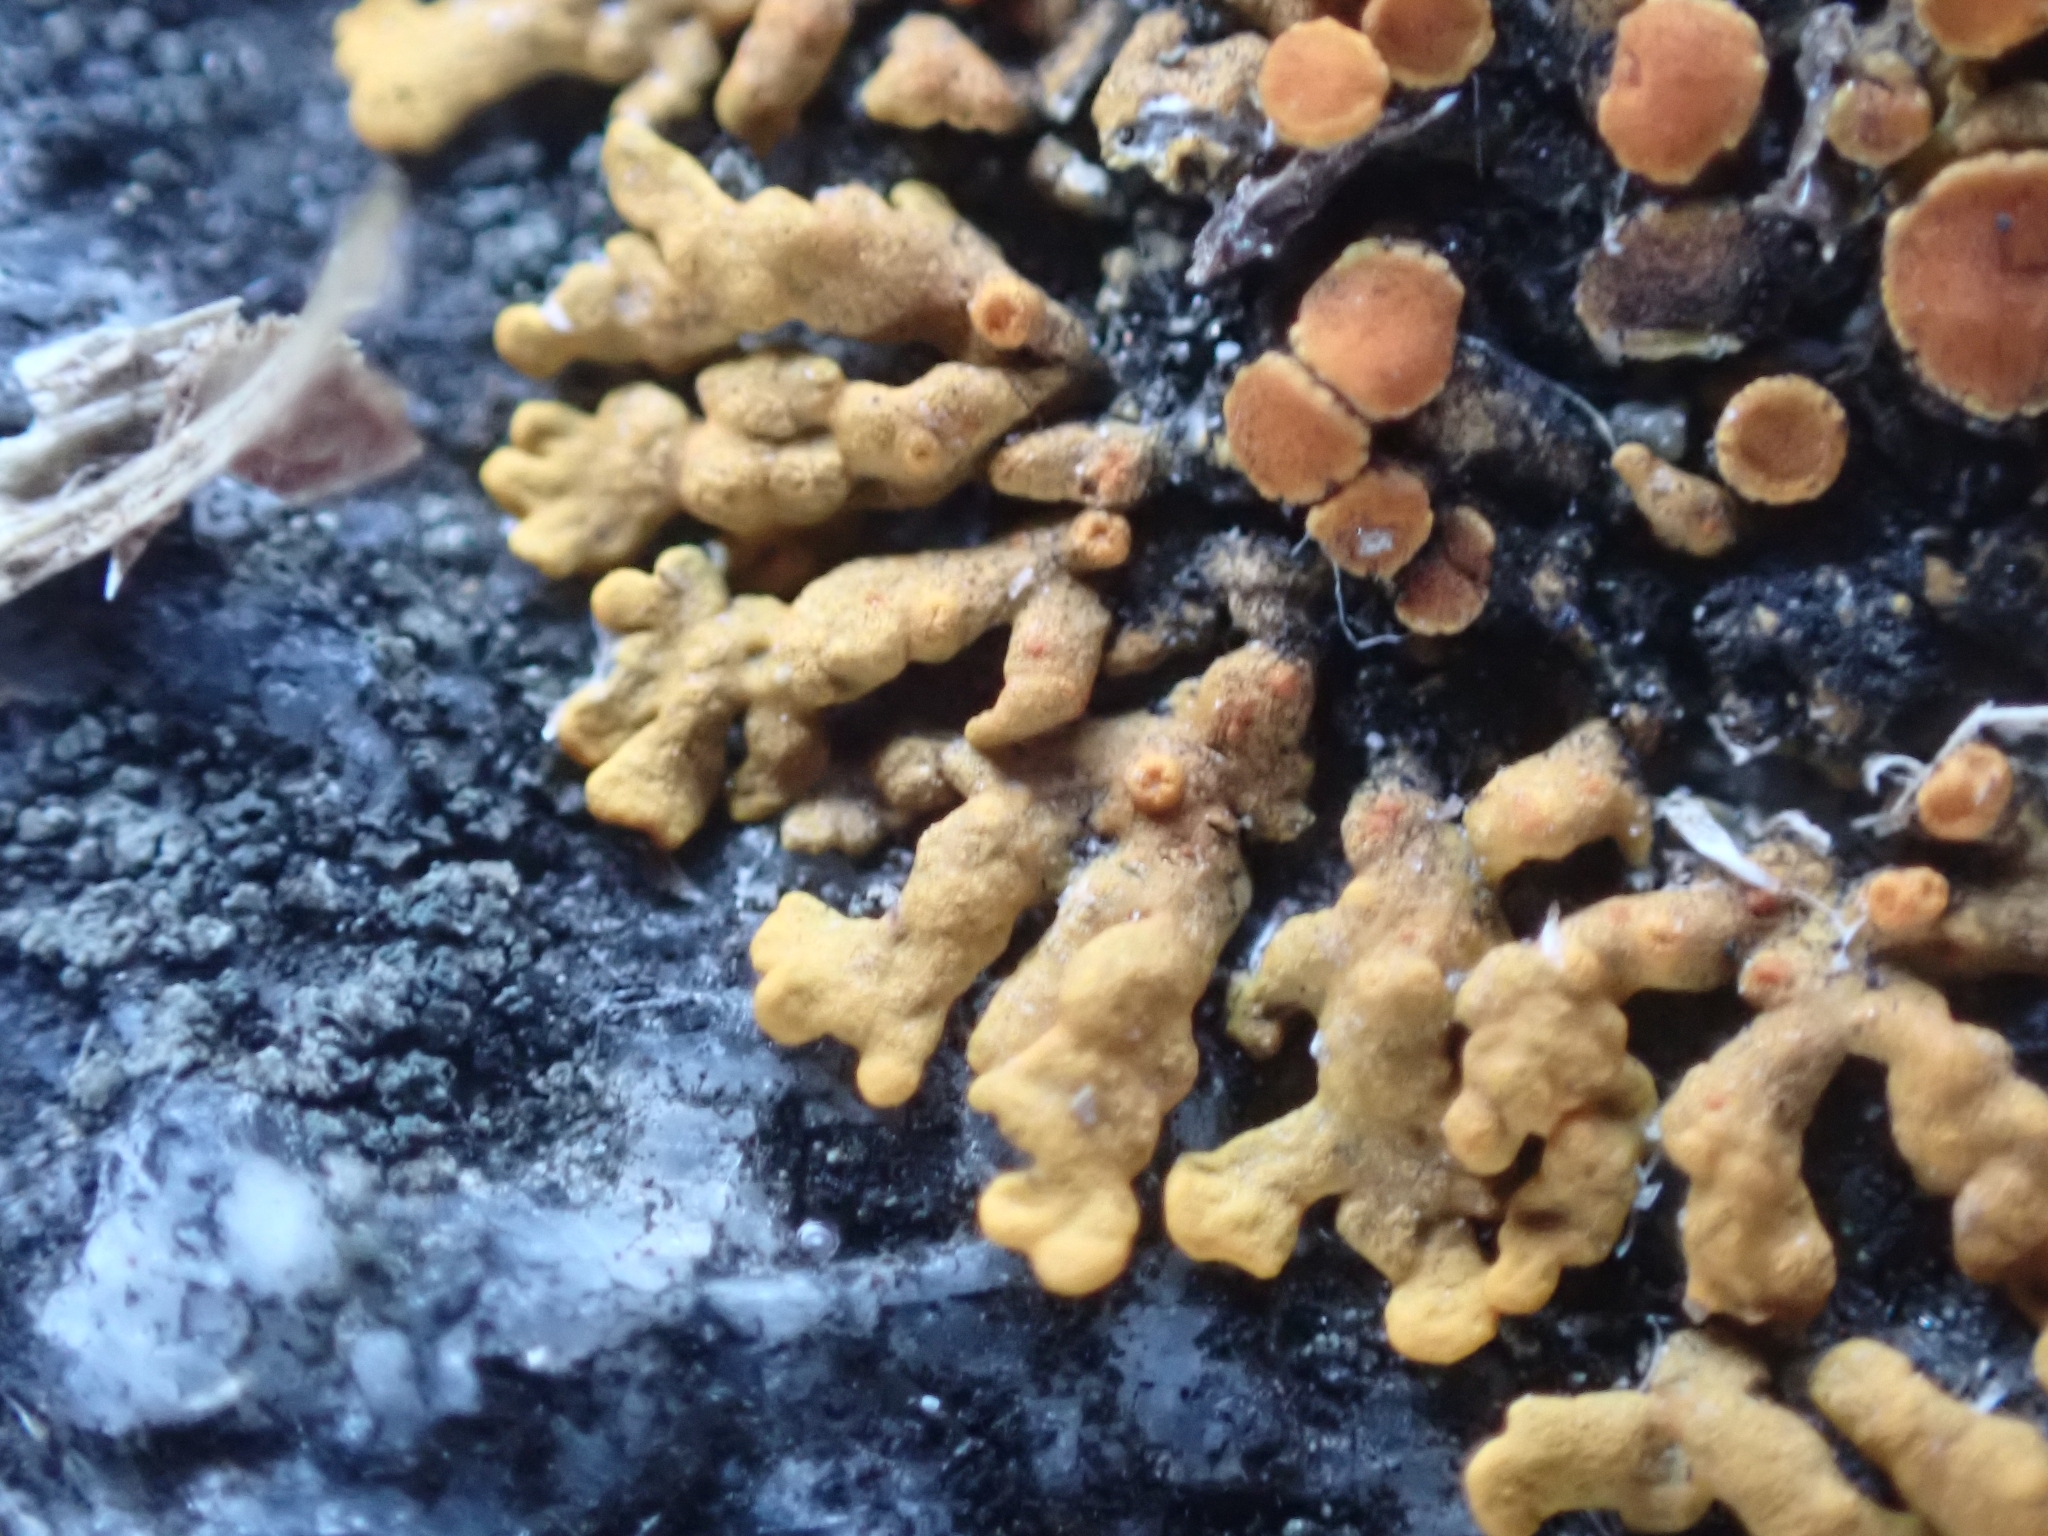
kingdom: Fungi
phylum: Ascomycota
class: Lecanoromycetes
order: Teloschistales
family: Teloschistaceae
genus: Xanthoria
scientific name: Xanthoria elegans
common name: Elegant sunburst lichen
